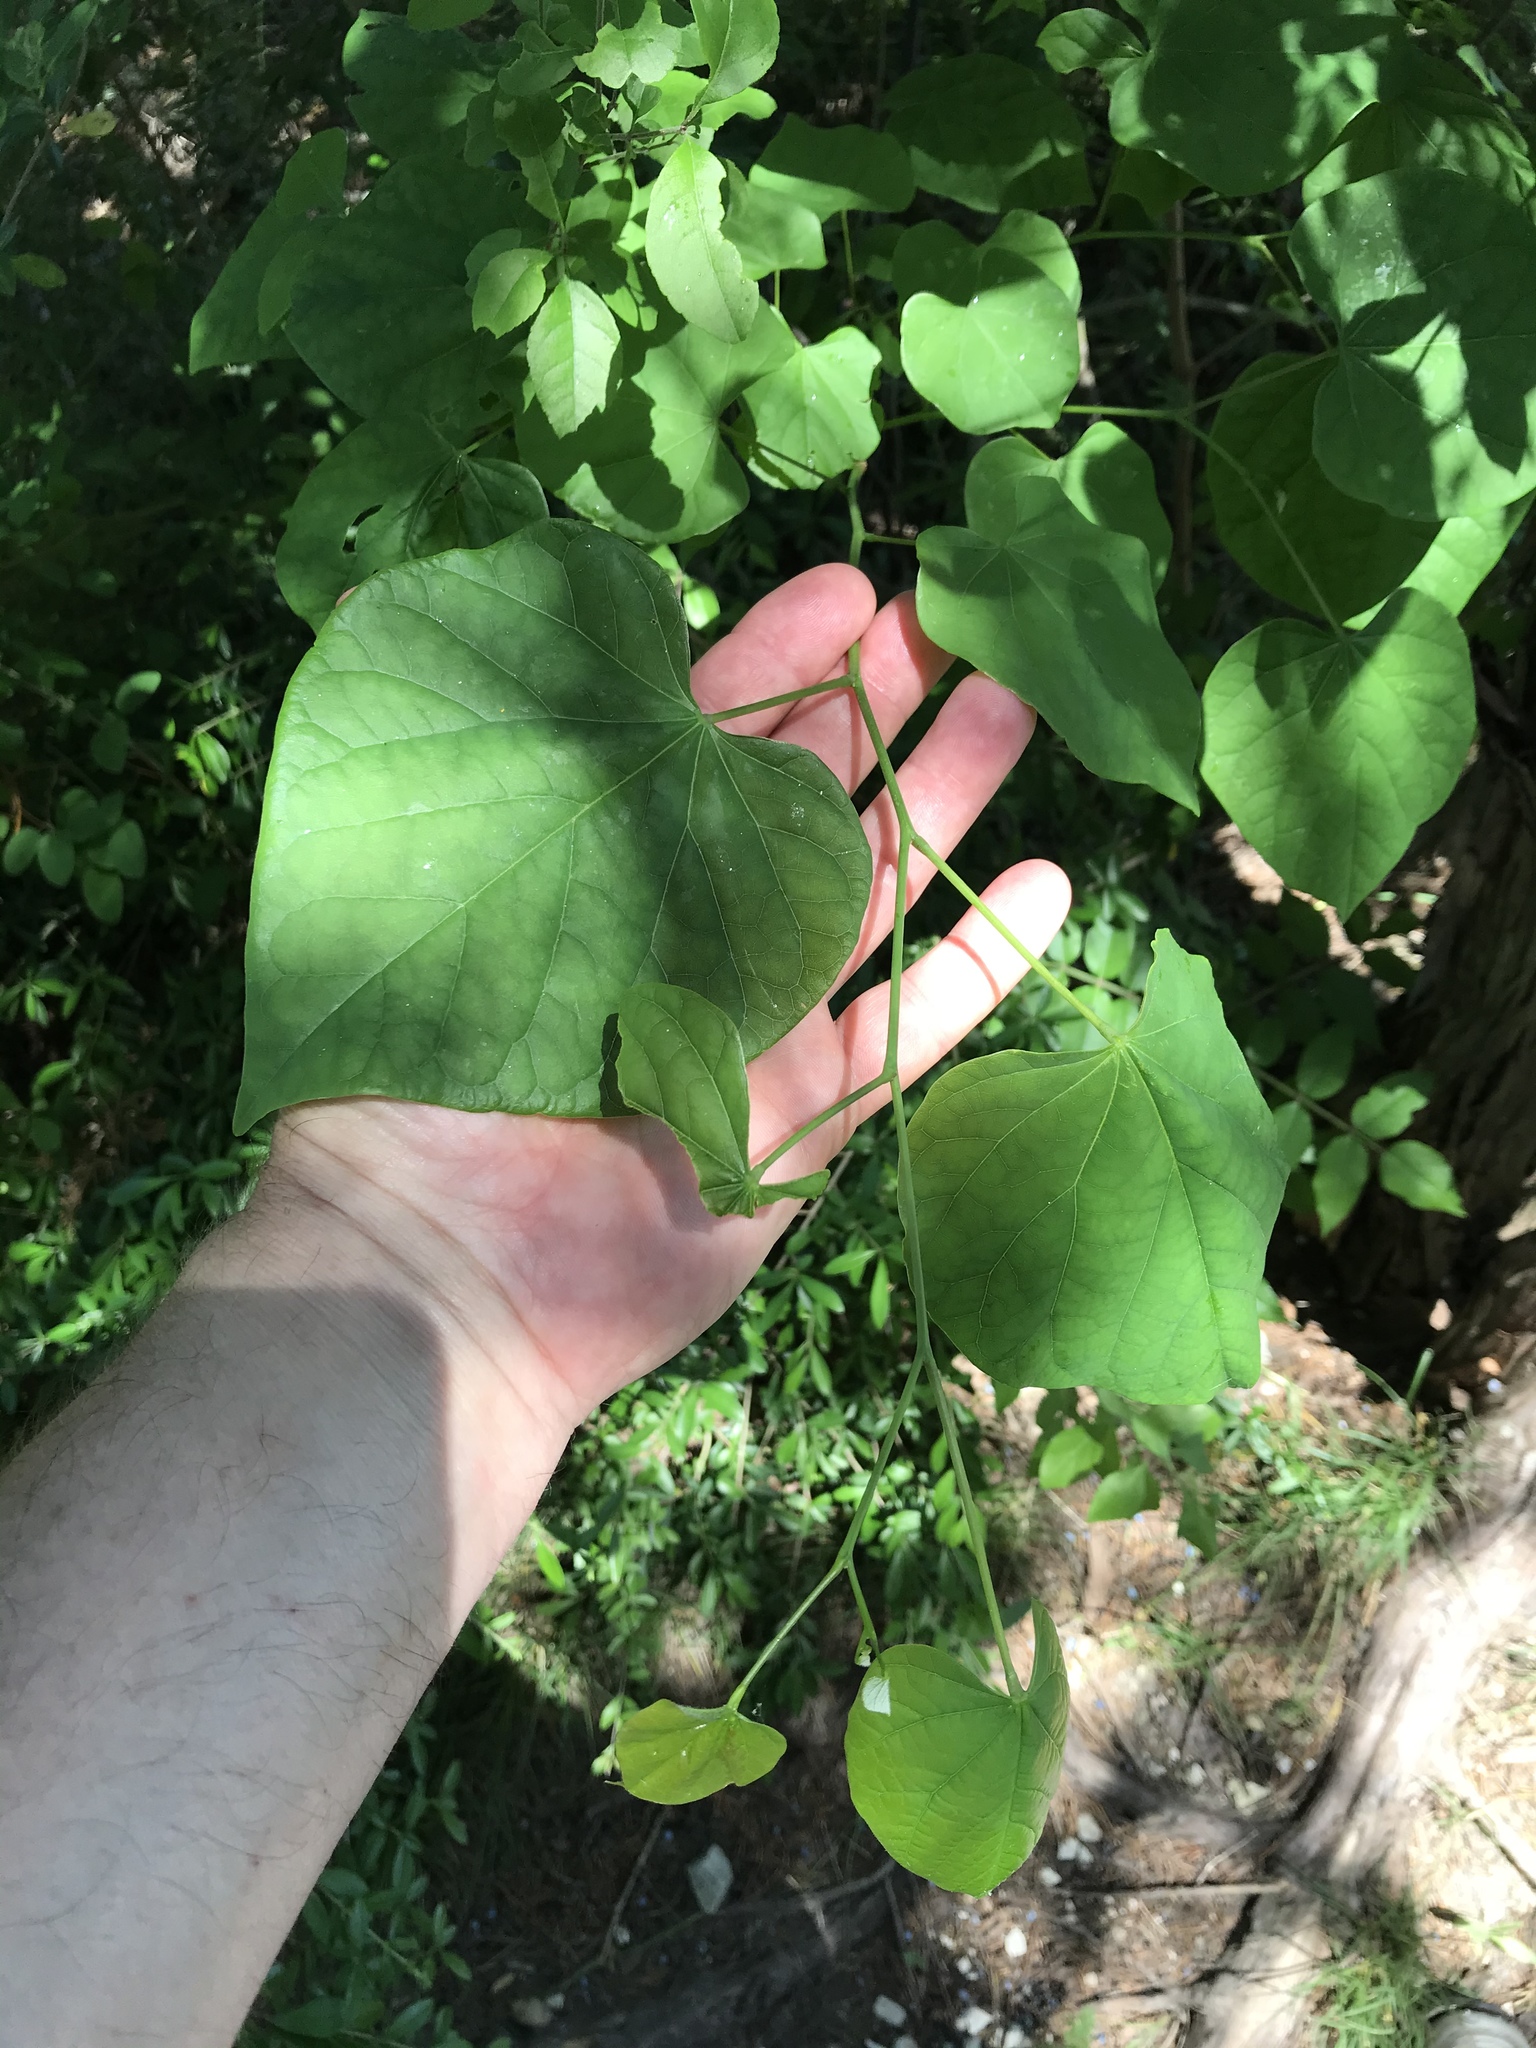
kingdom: Plantae
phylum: Tracheophyta
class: Magnoliopsida
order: Fabales
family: Fabaceae
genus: Cercis
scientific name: Cercis canadensis
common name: Eastern redbud
